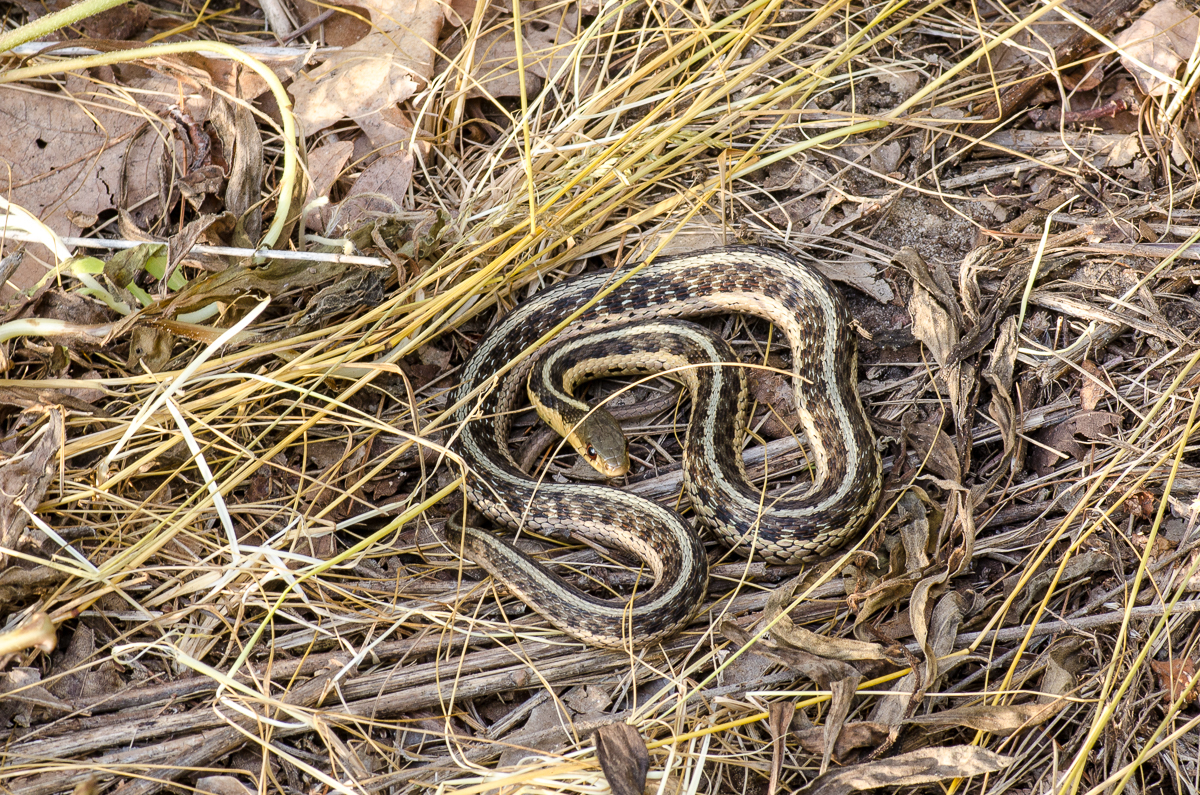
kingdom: Animalia
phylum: Chordata
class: Squamata
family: Colubridae
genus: Thamnophis
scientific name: Thamnophis sirtalis
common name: Common garter snake
